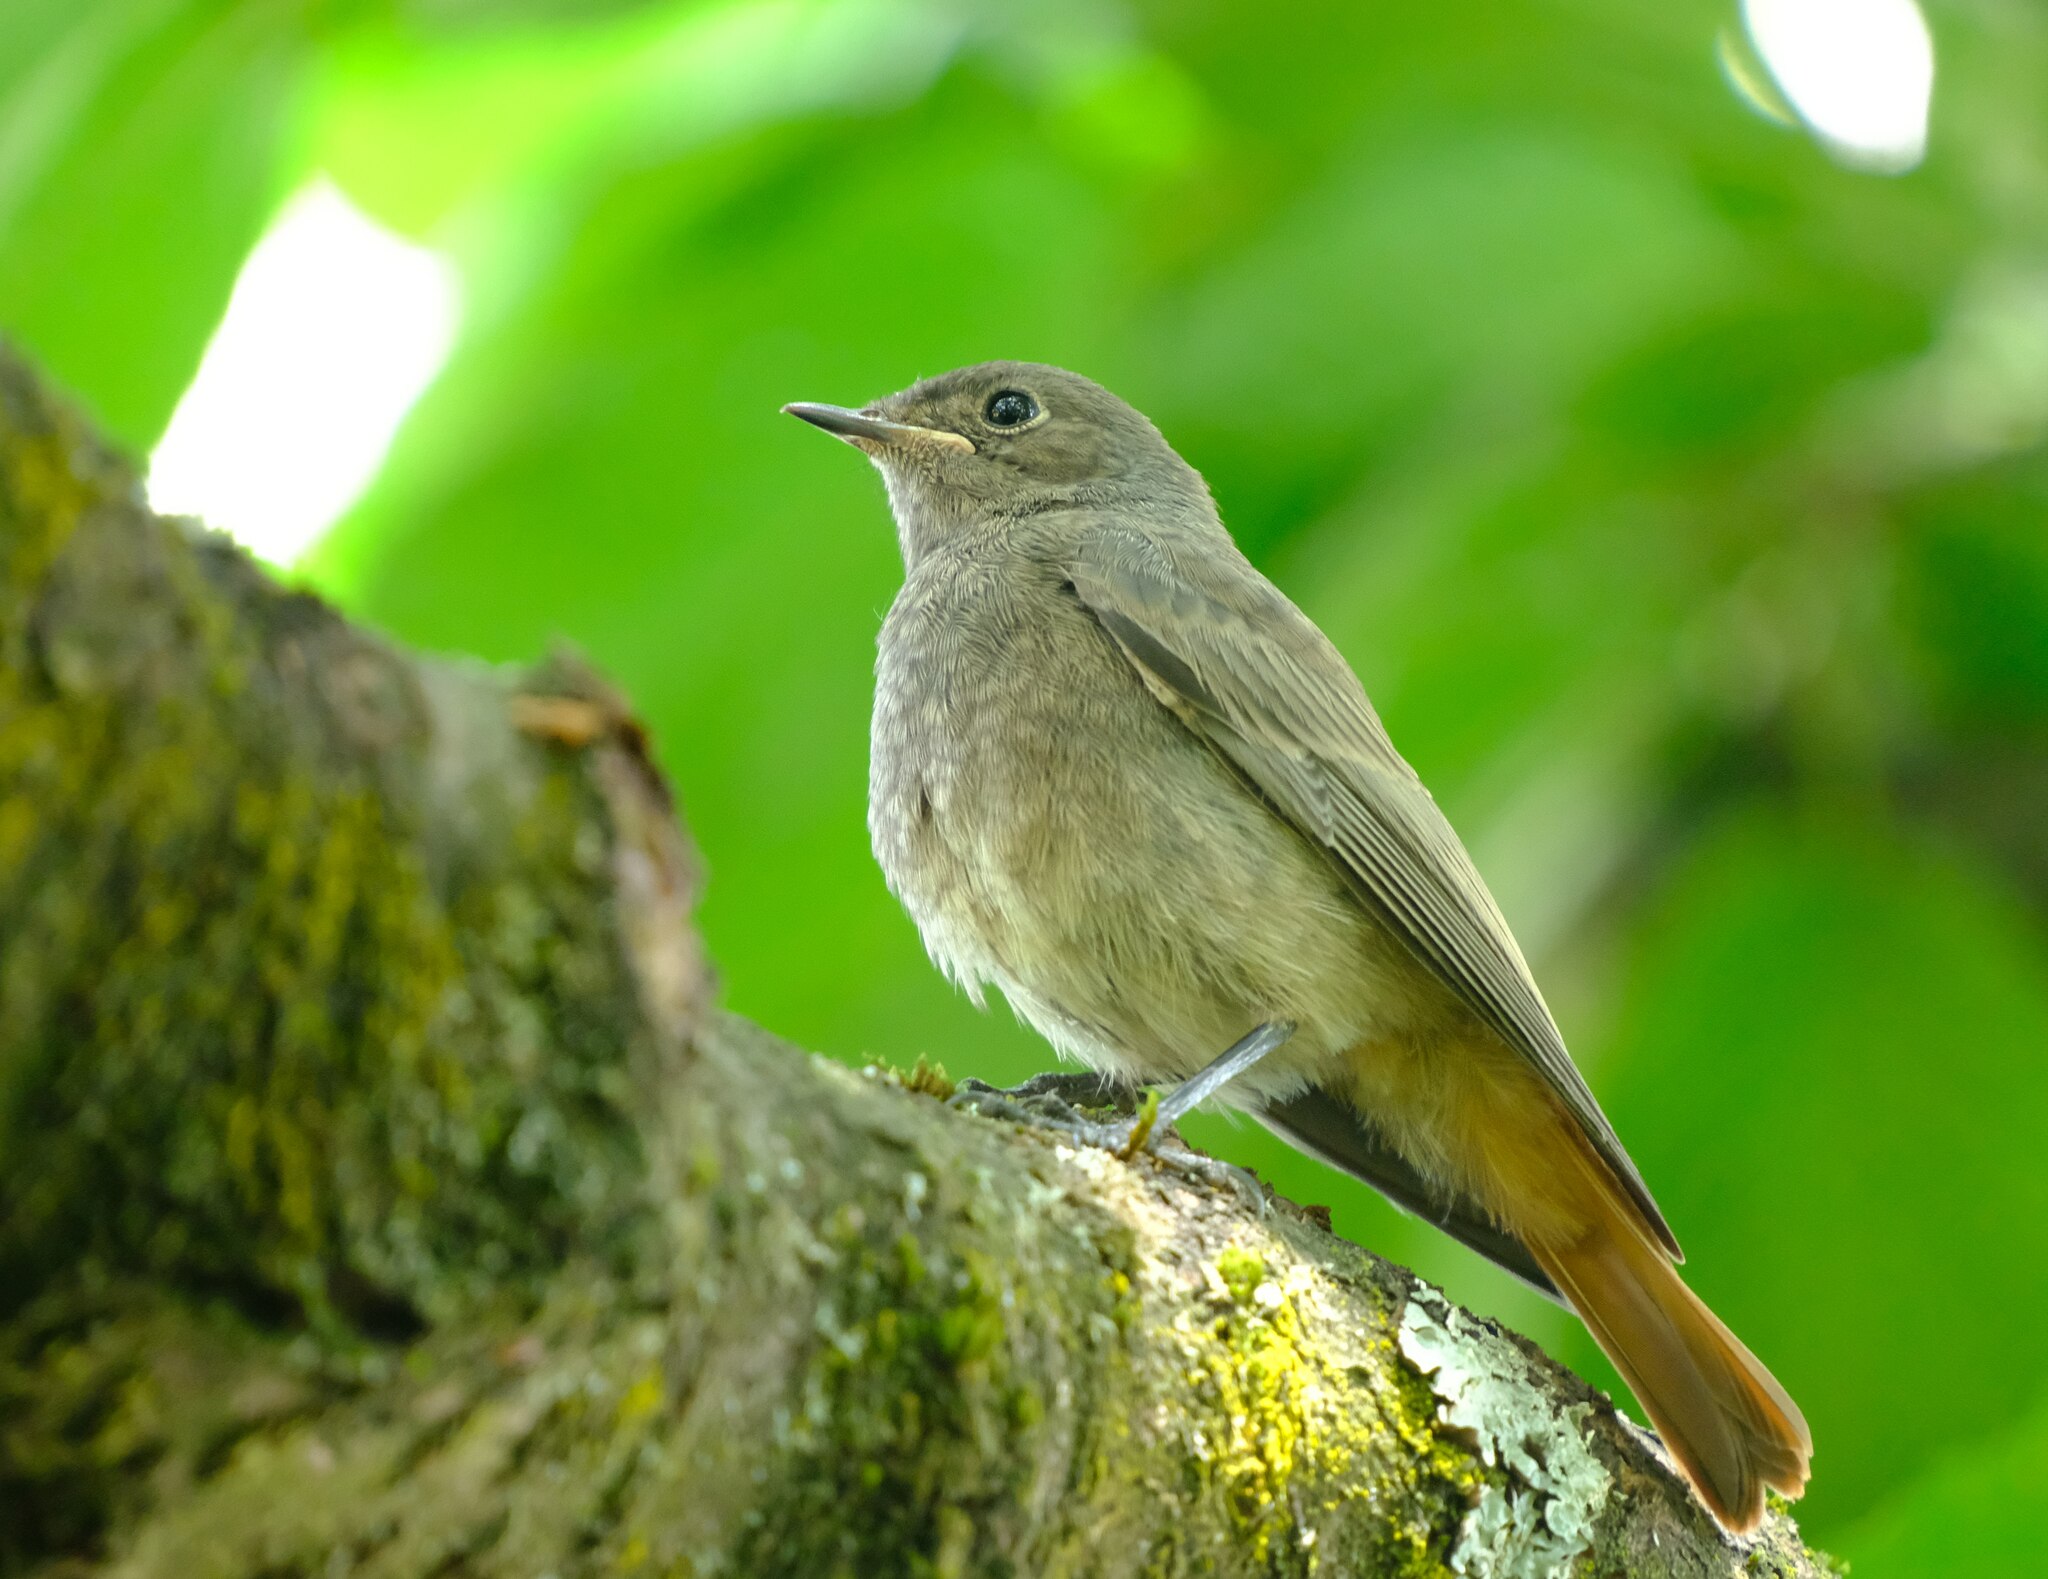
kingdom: Animalia
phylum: Chordata
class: Aves
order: Passeriformes
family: Muscicapidae
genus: Phoenicurus
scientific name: Phoenicurus ochruros
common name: Black redstart
